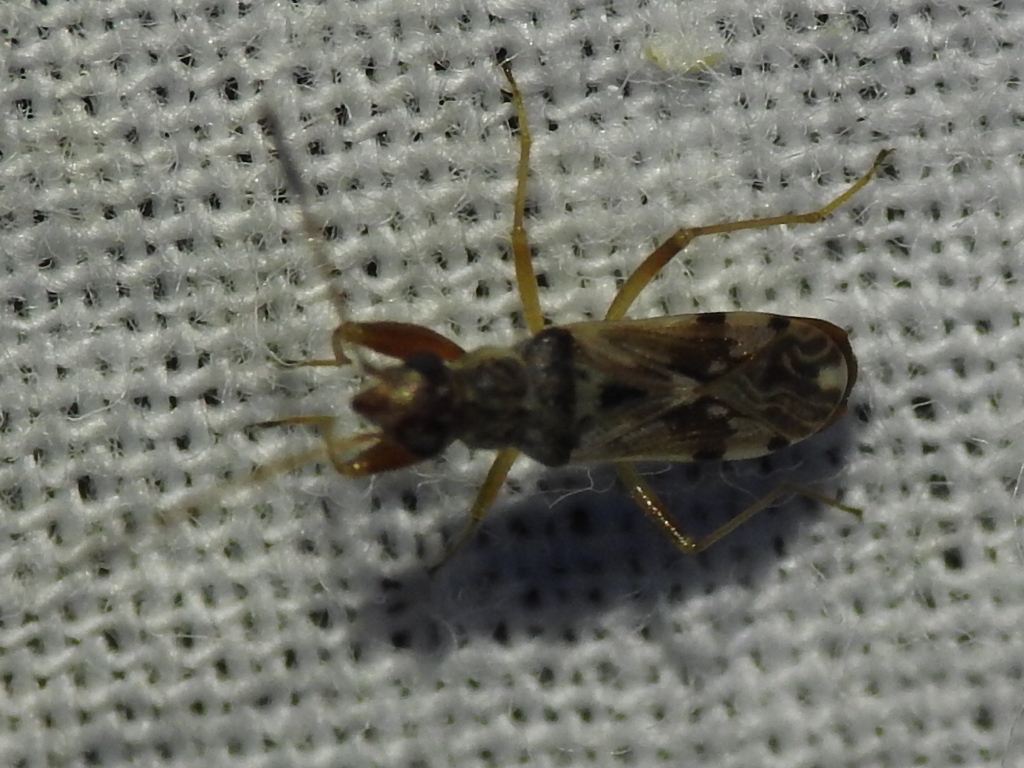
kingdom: Animalia
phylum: Arthropoda
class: Insecta
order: Hemiptera
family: Rhyparochromidae
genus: Neopamera
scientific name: Neopamera bilobata
